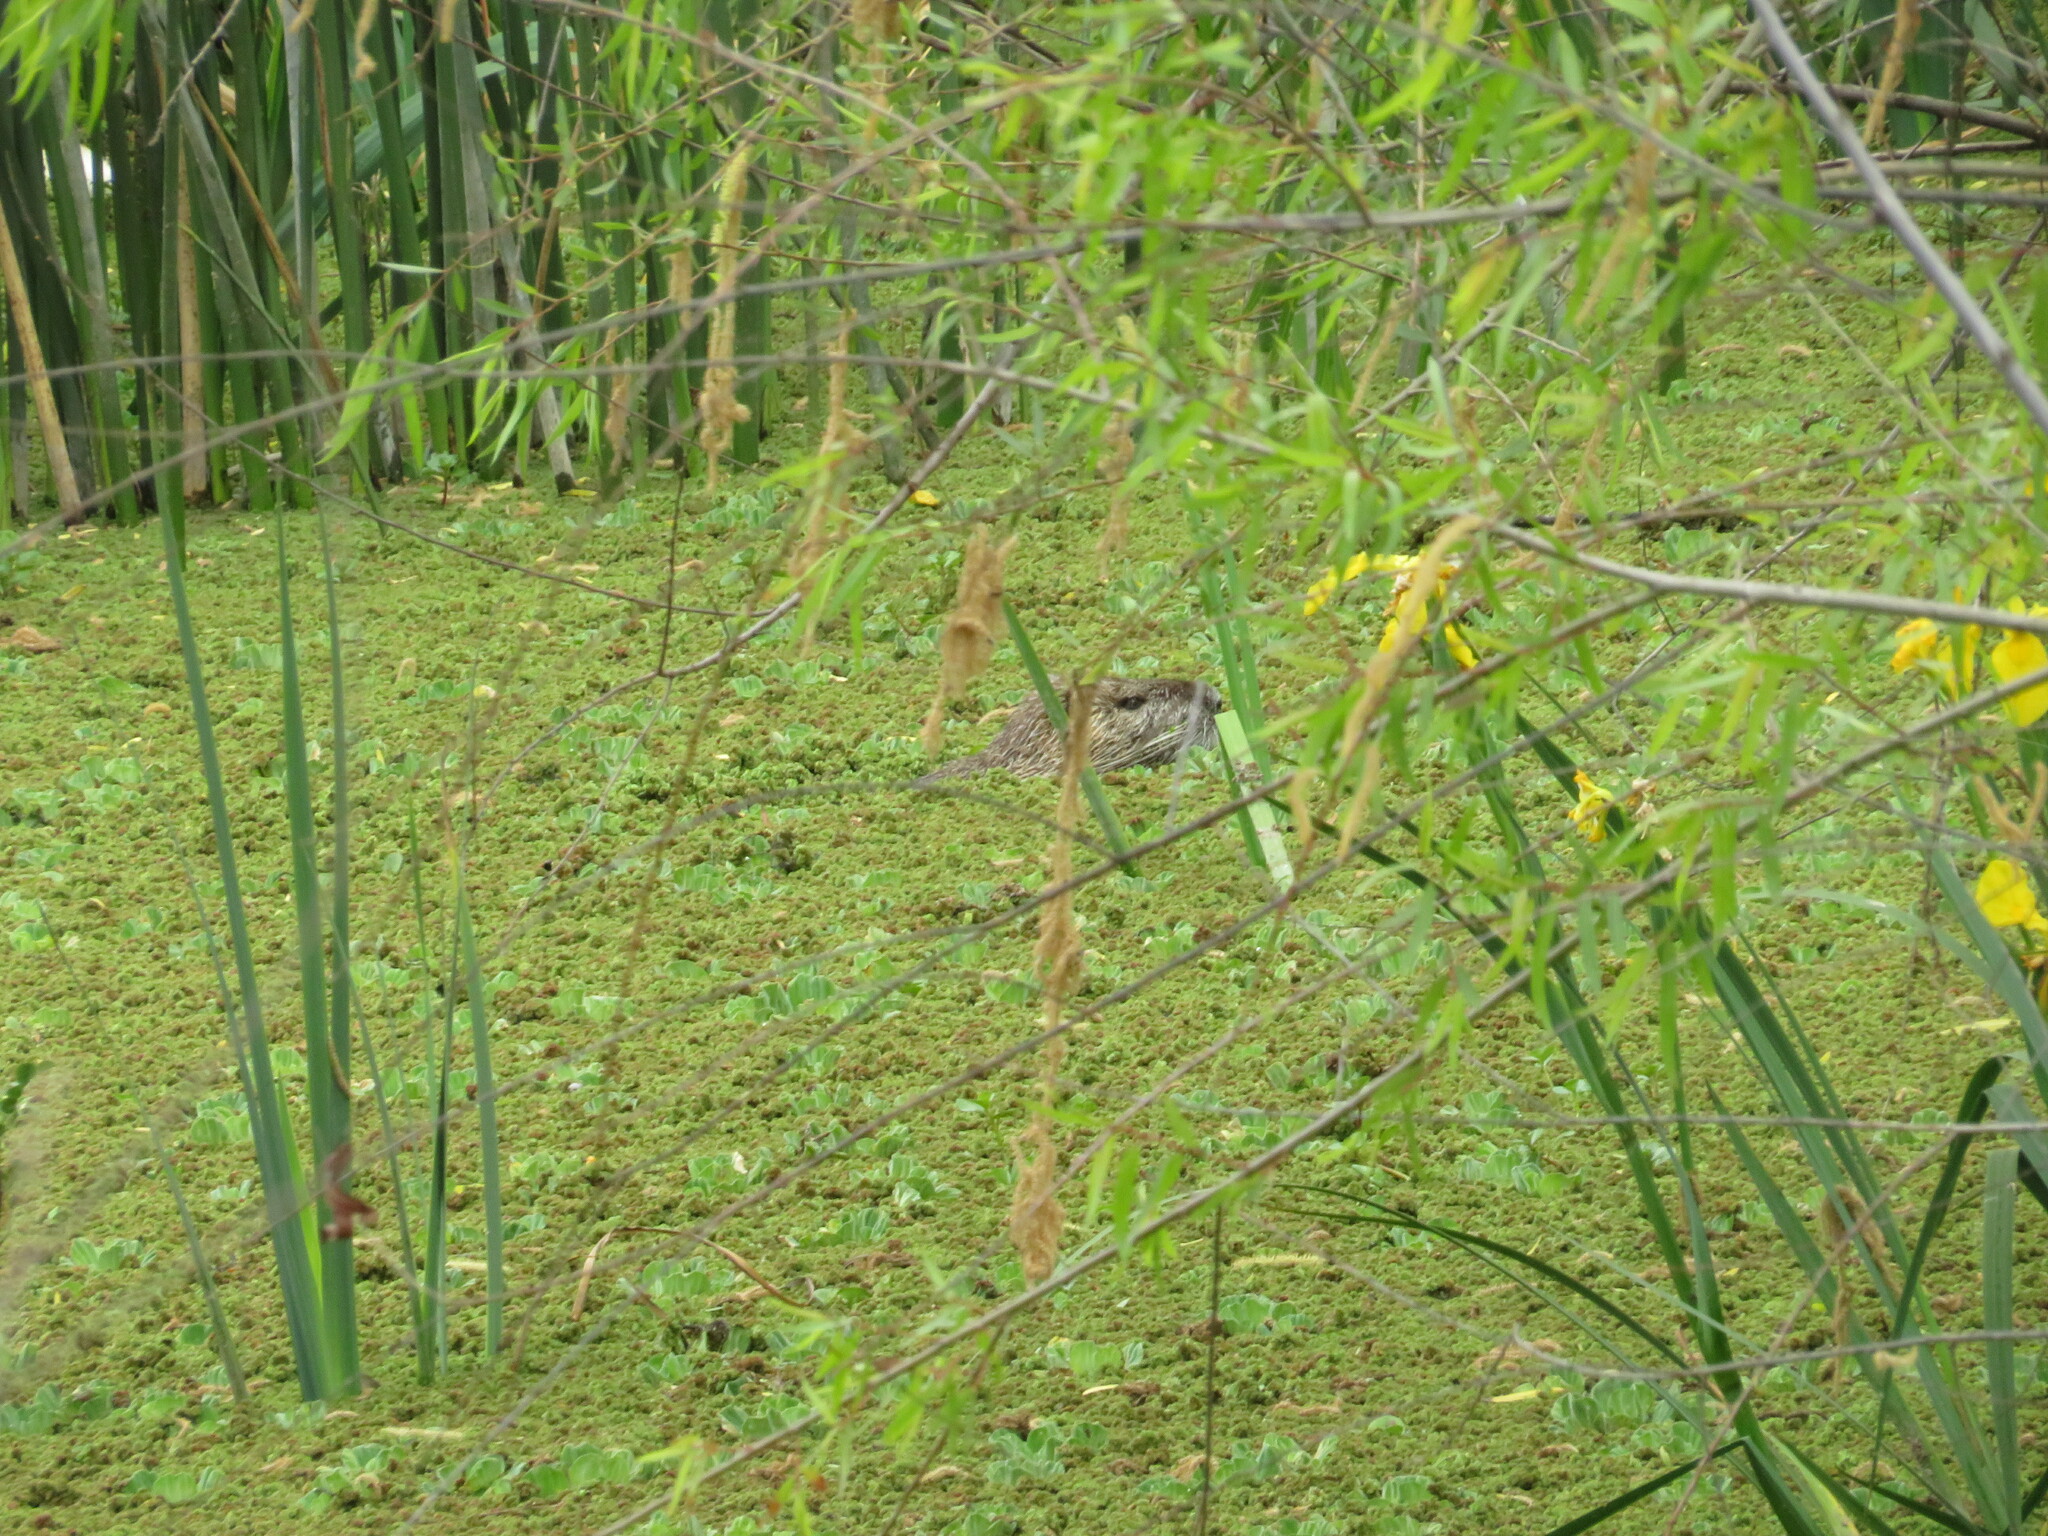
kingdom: Animalia
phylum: Chordata
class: Mammalia
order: Rodentia
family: Myocastoridae
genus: Myocastor
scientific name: Myocastor coypus
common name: Coypu
